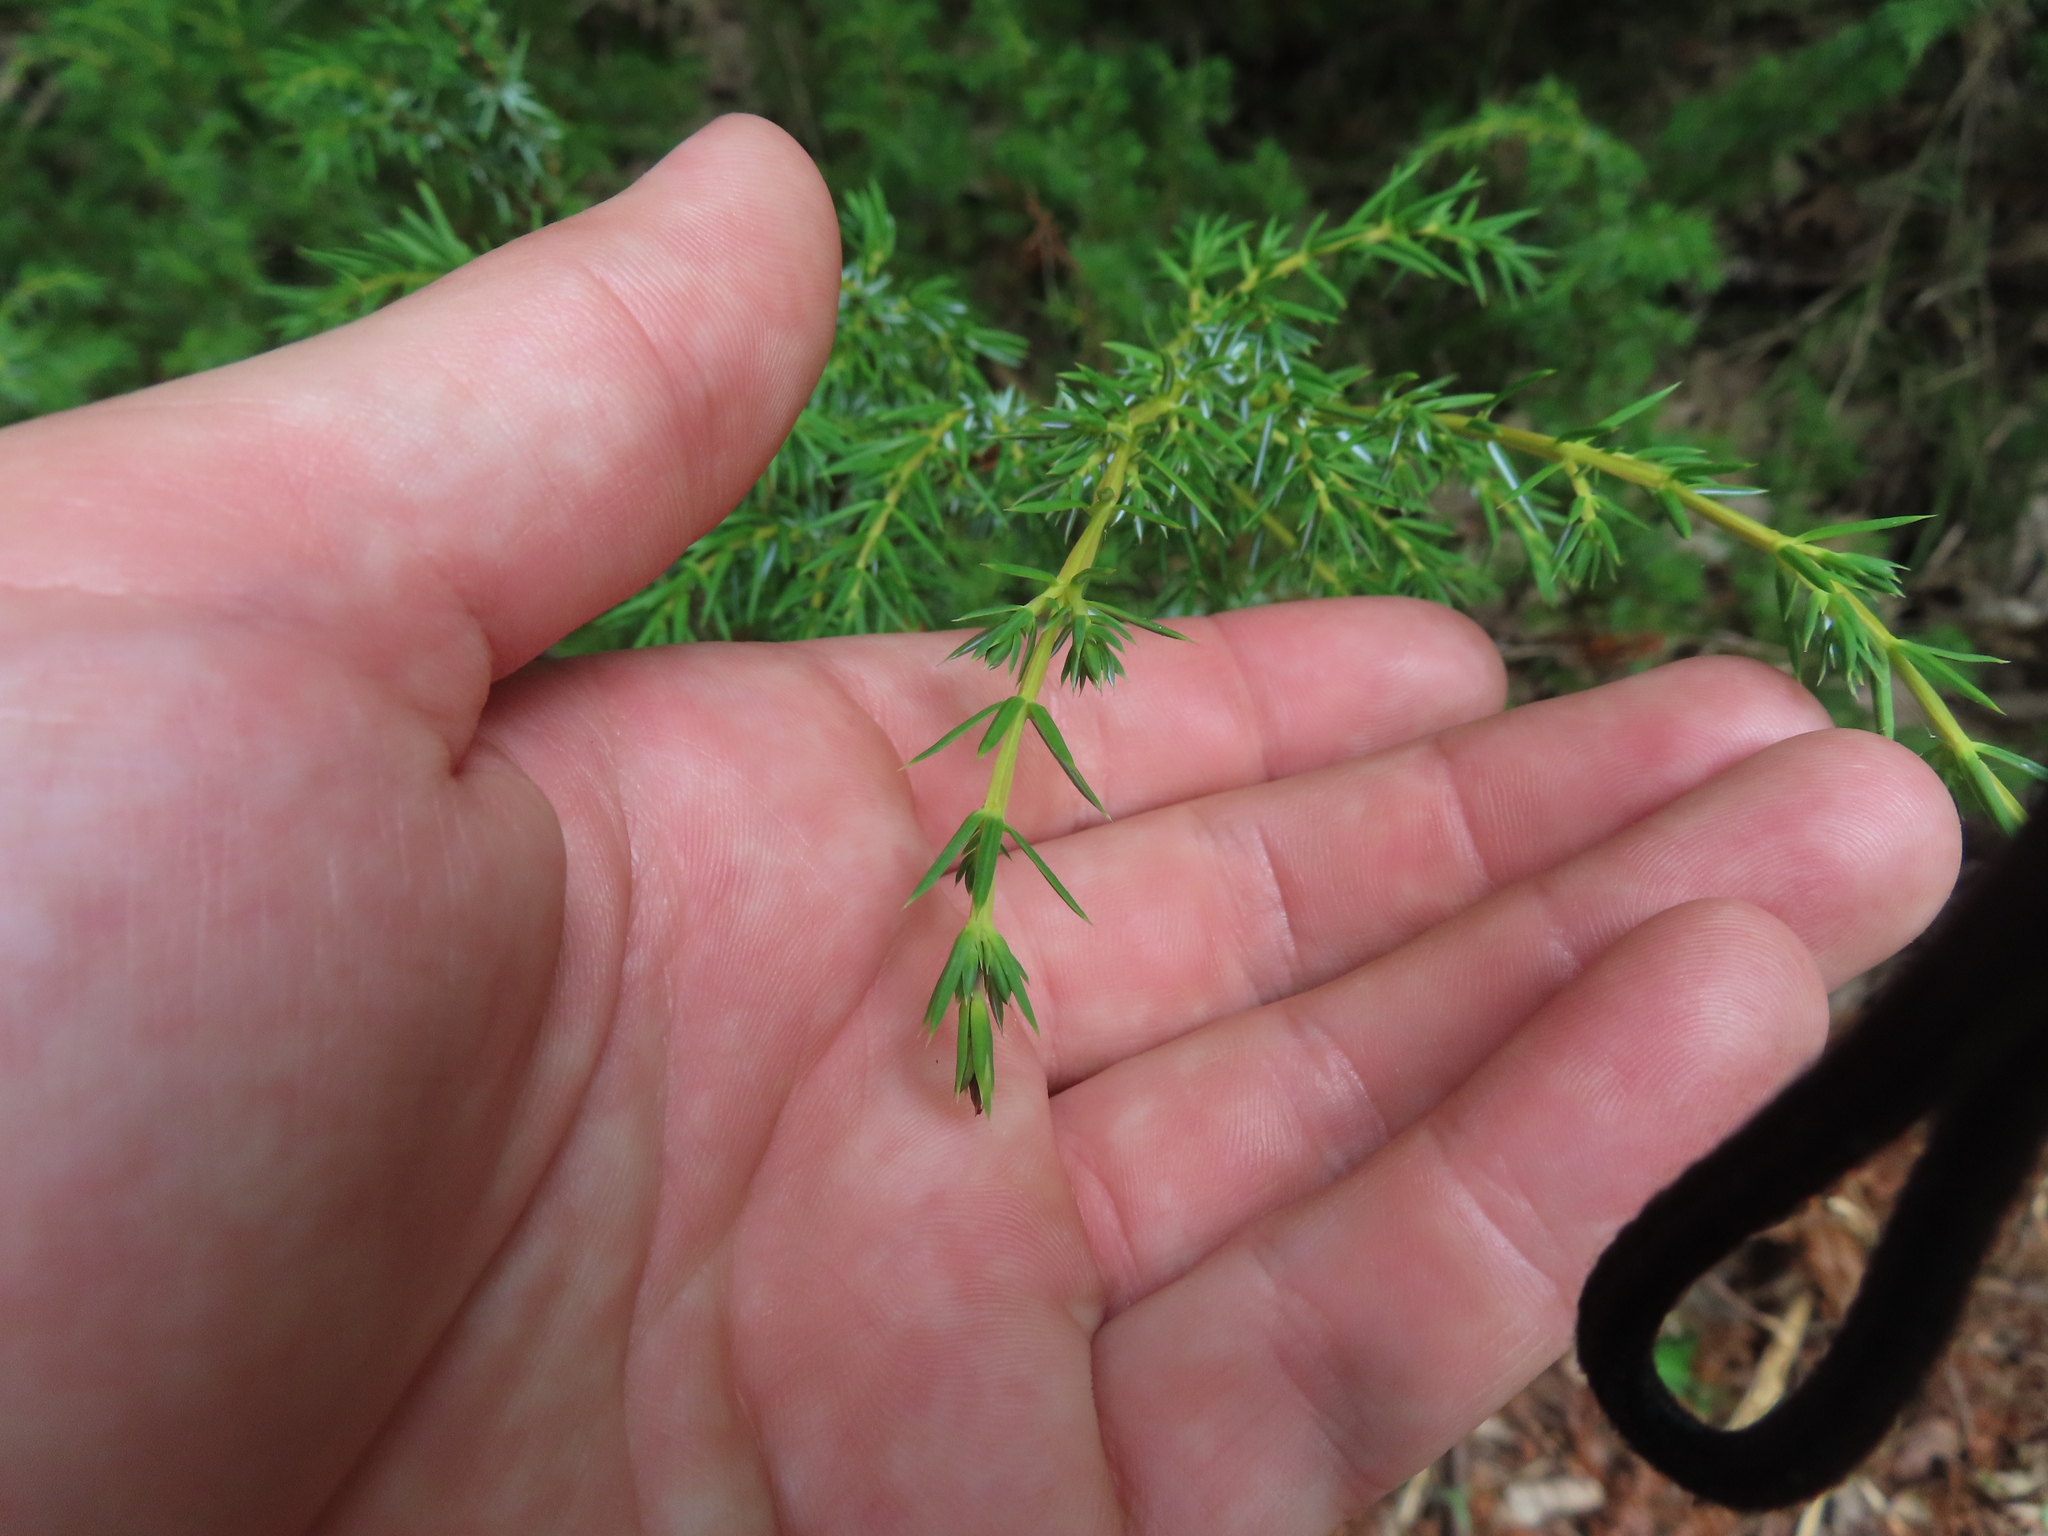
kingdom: Plantae
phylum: Tracheophyta
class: Pinopsida
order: Pinales
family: Cupressaceae
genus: Juniperus
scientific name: Juniperus communis
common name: Common juniper
